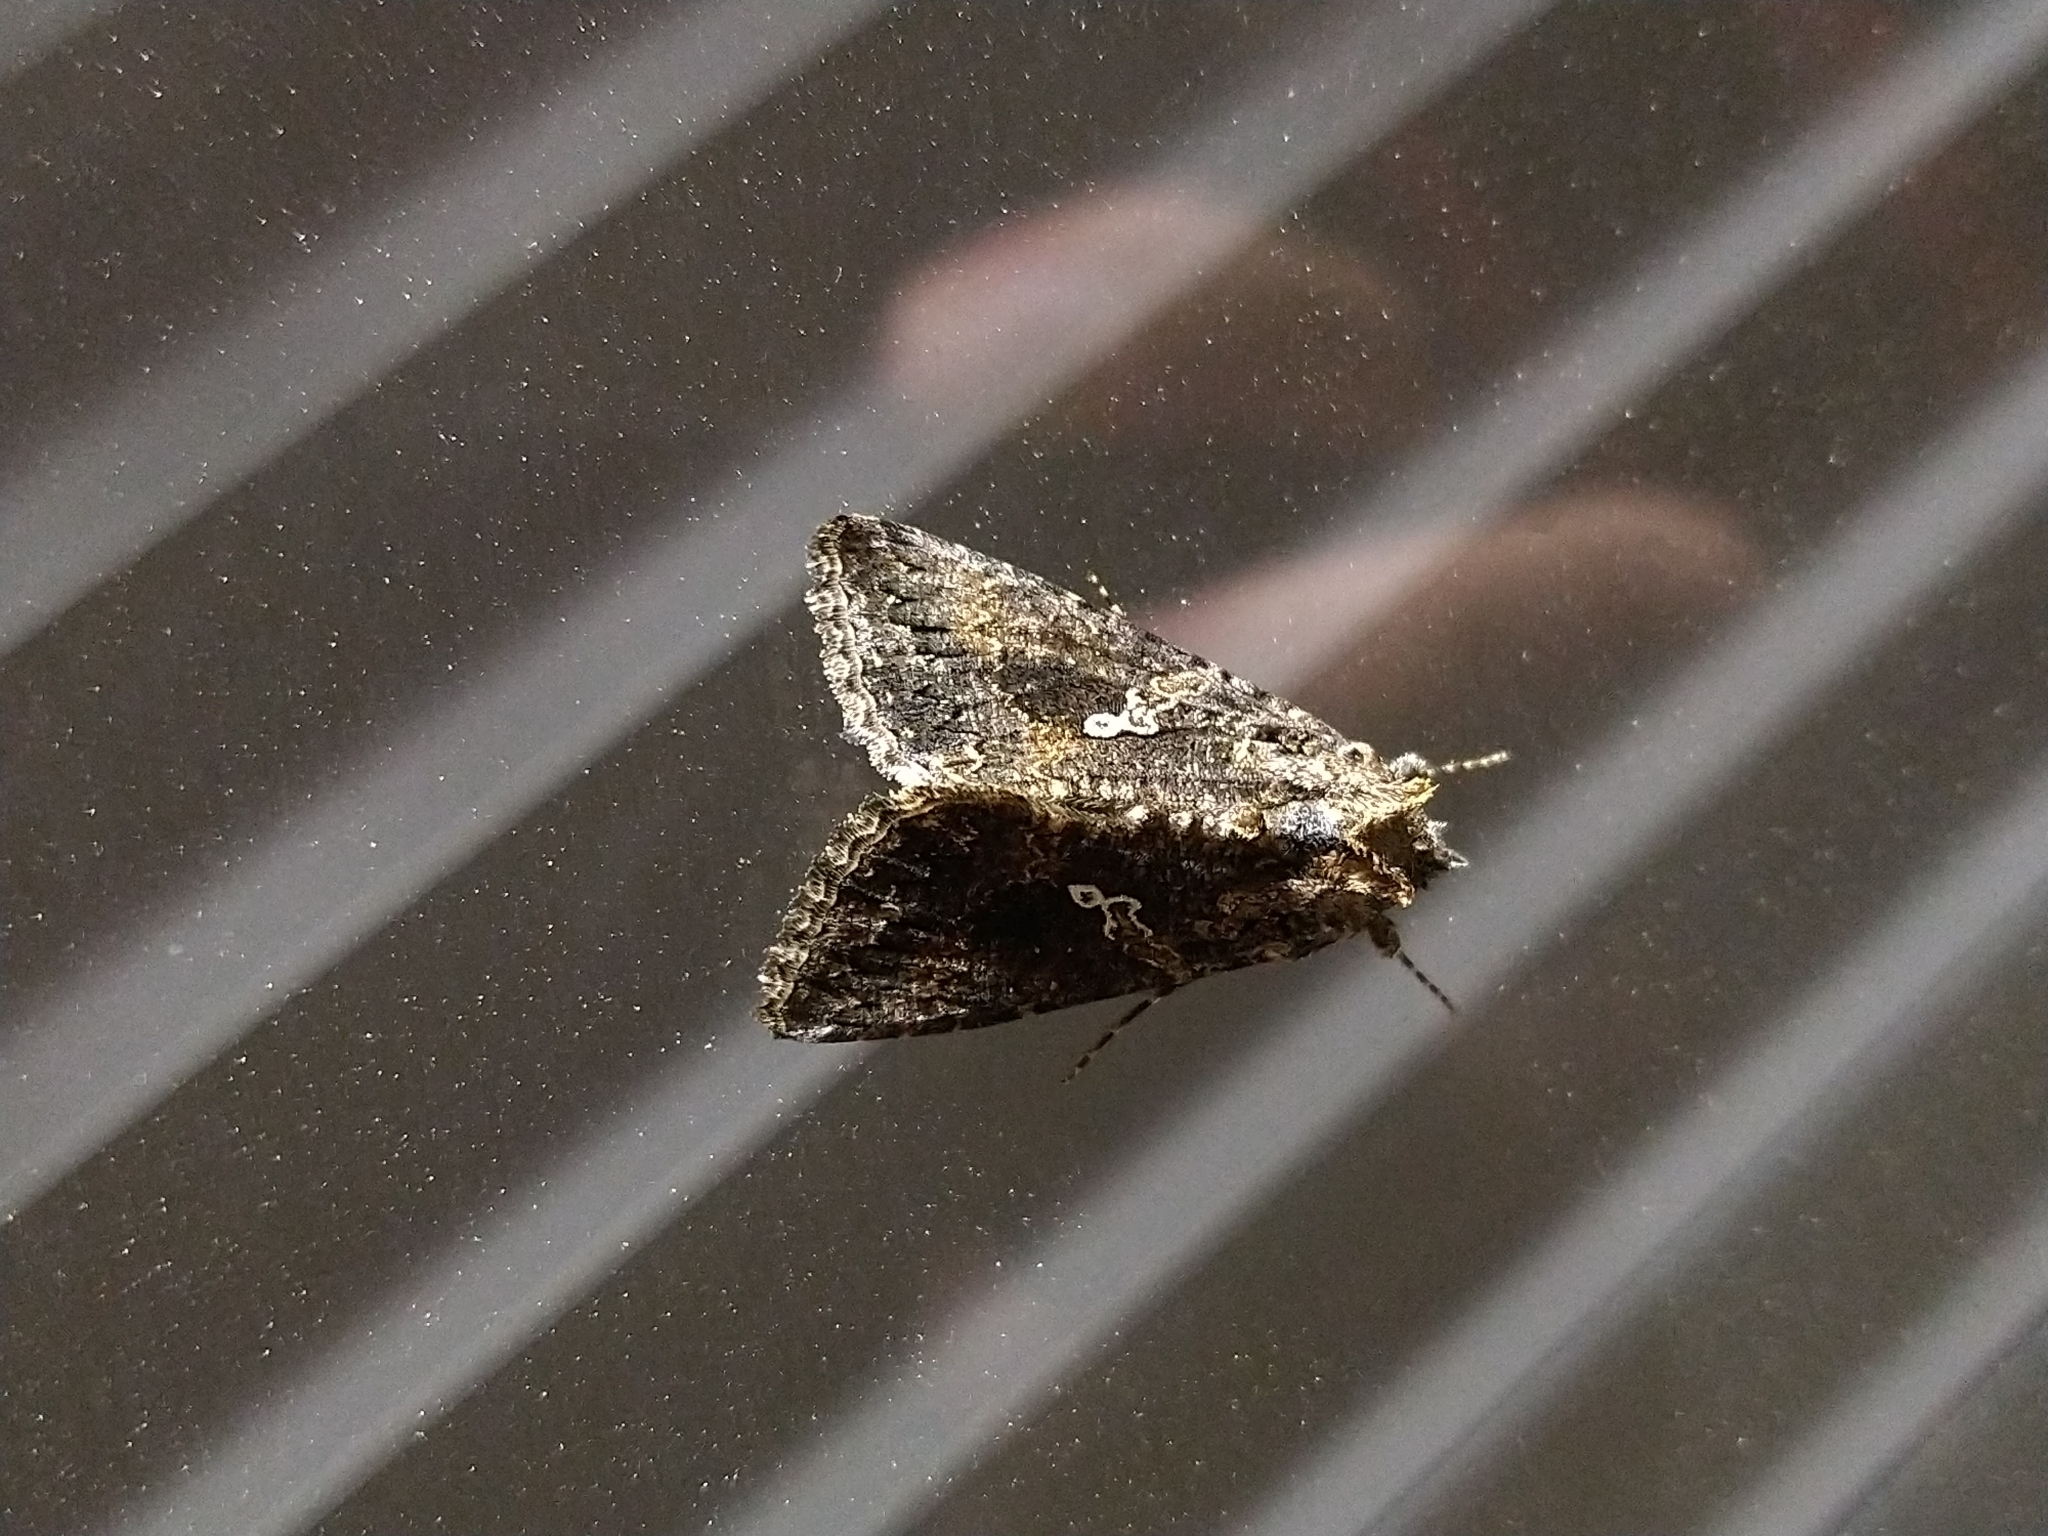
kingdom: Animalia
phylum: Arthropoda
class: Insecta
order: Lepidoptera
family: Noctuidae
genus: Trichoplusia
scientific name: Trichoplusia ni
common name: Ni moth
